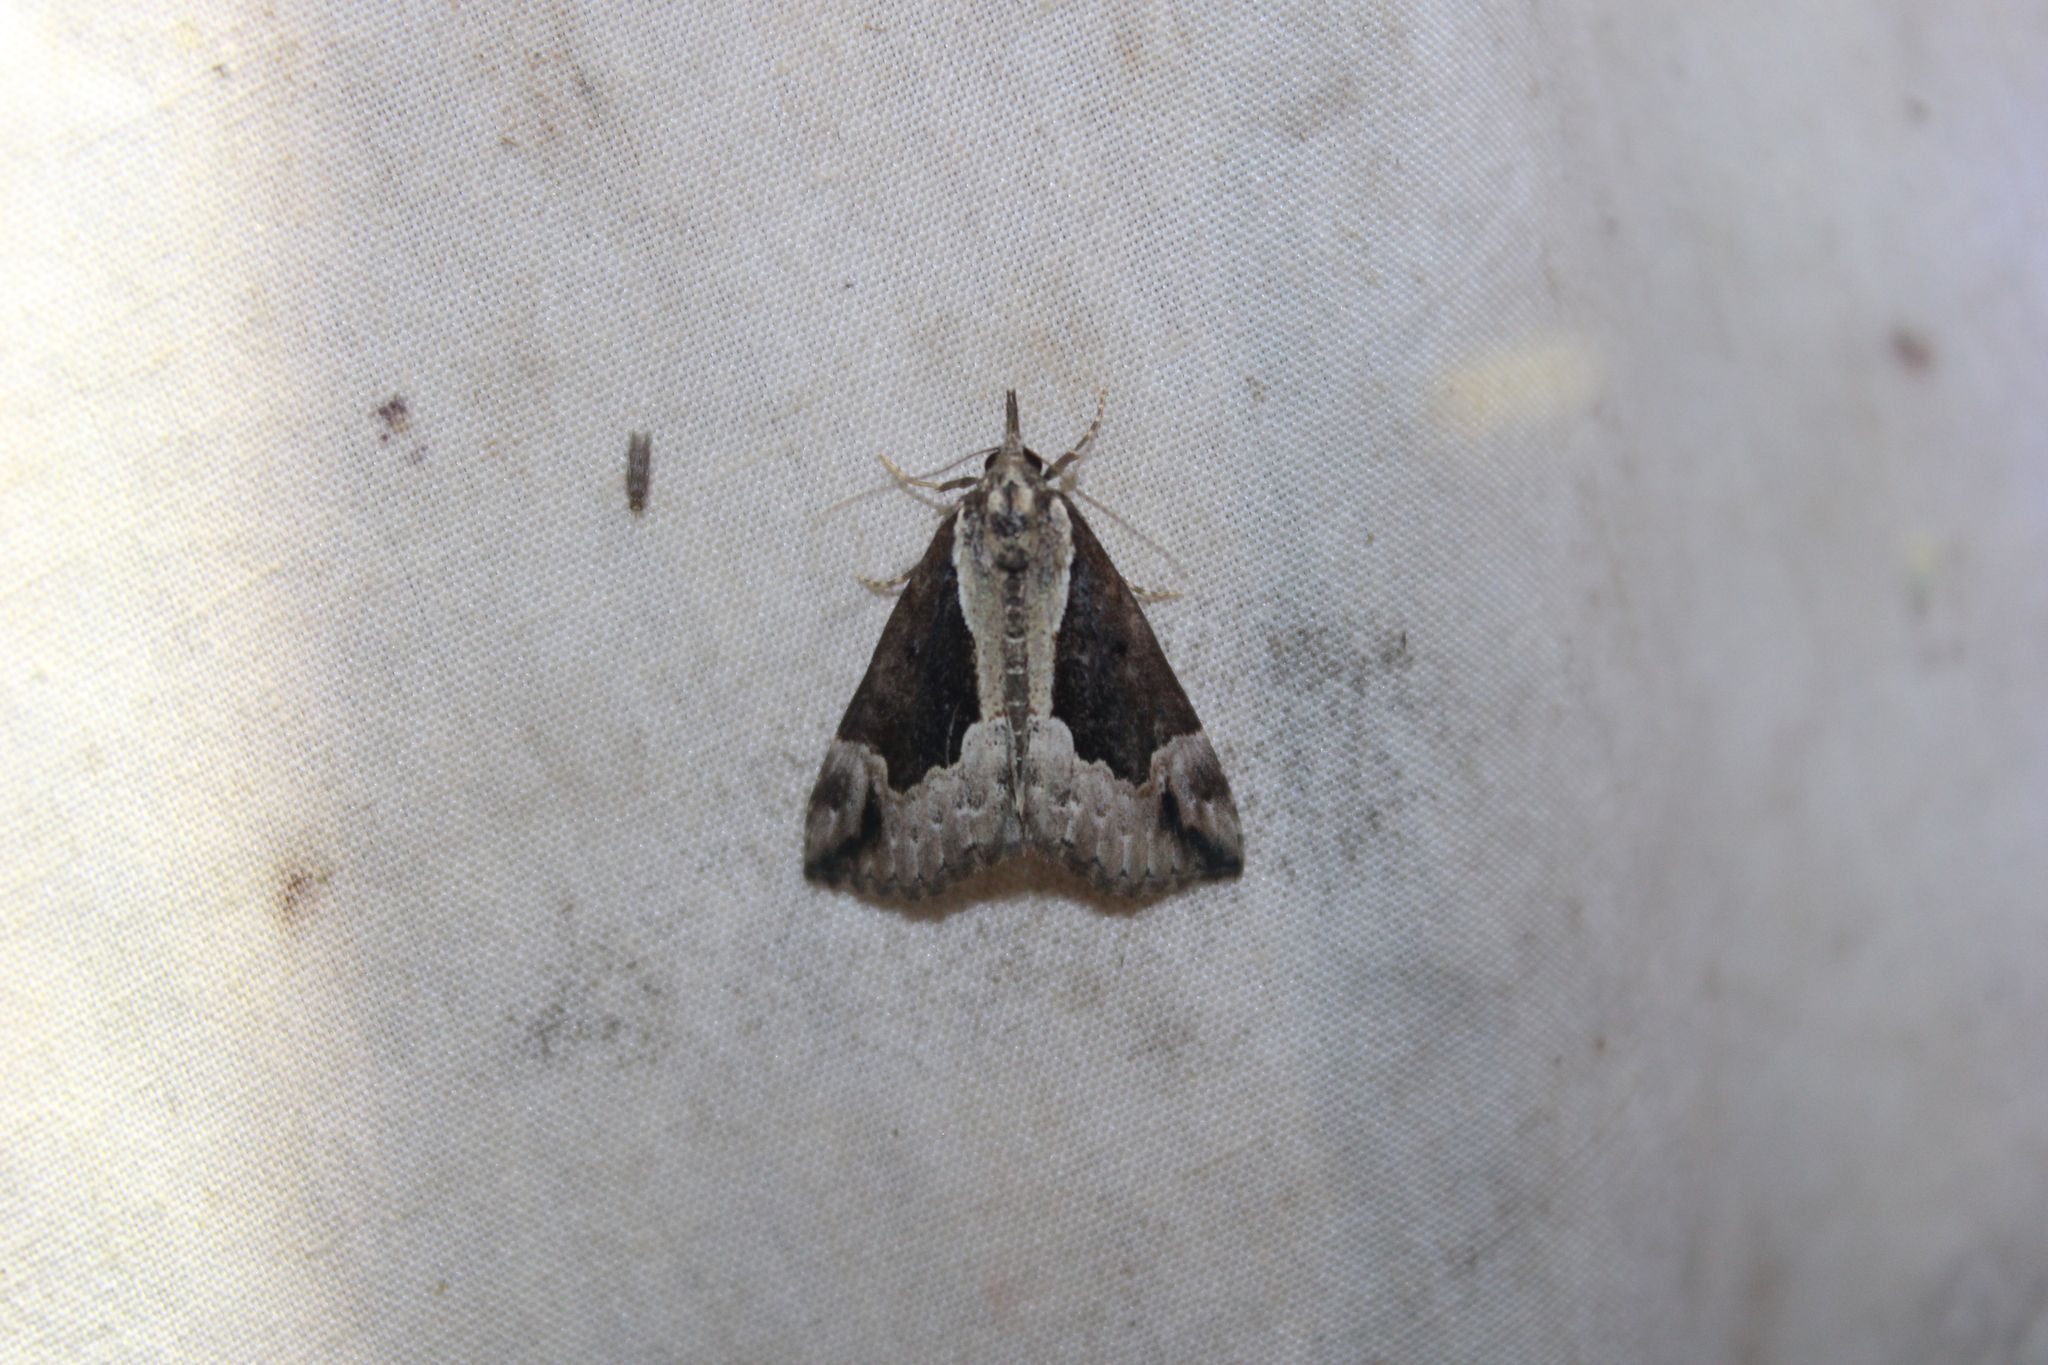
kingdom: Animalia
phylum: Arthropoda
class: Insecta
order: Lepidoptera
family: Erebidae
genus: Hypena
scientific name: Hypena baltimoralis
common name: Baltimore snout
